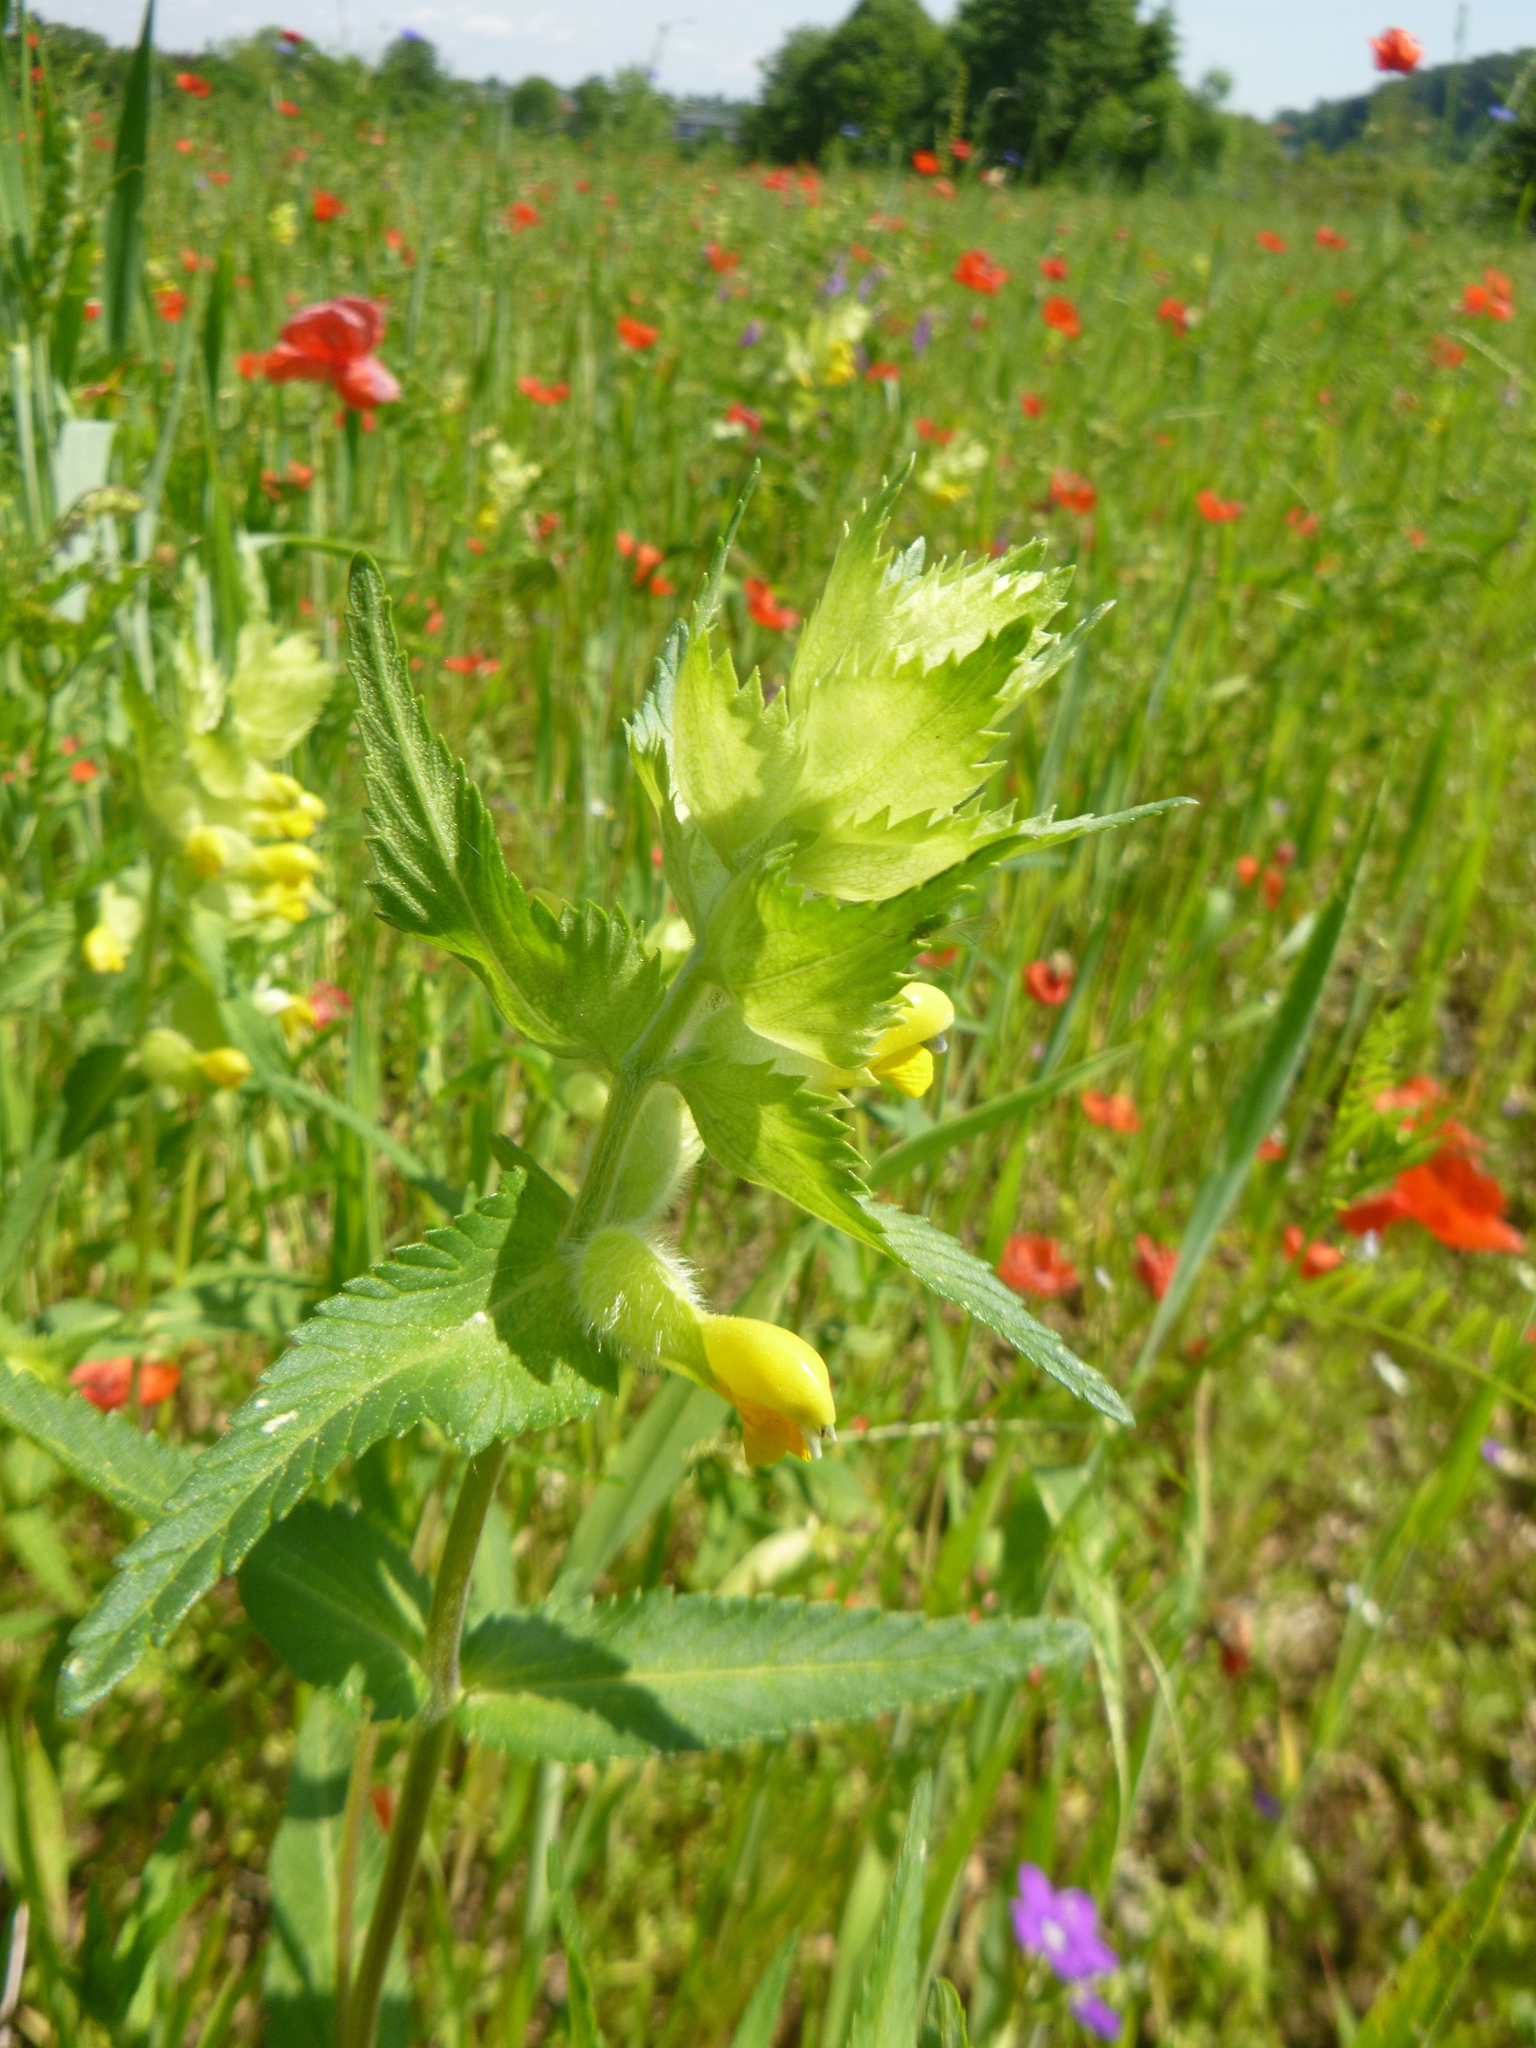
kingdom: Plantae
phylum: Tracheophyta
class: Magnoliopsida
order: Lamiales
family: Orobanchaceae
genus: Rhinanthus
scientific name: Rhinanthus alectorolophus
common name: Greater yellow-rattle
